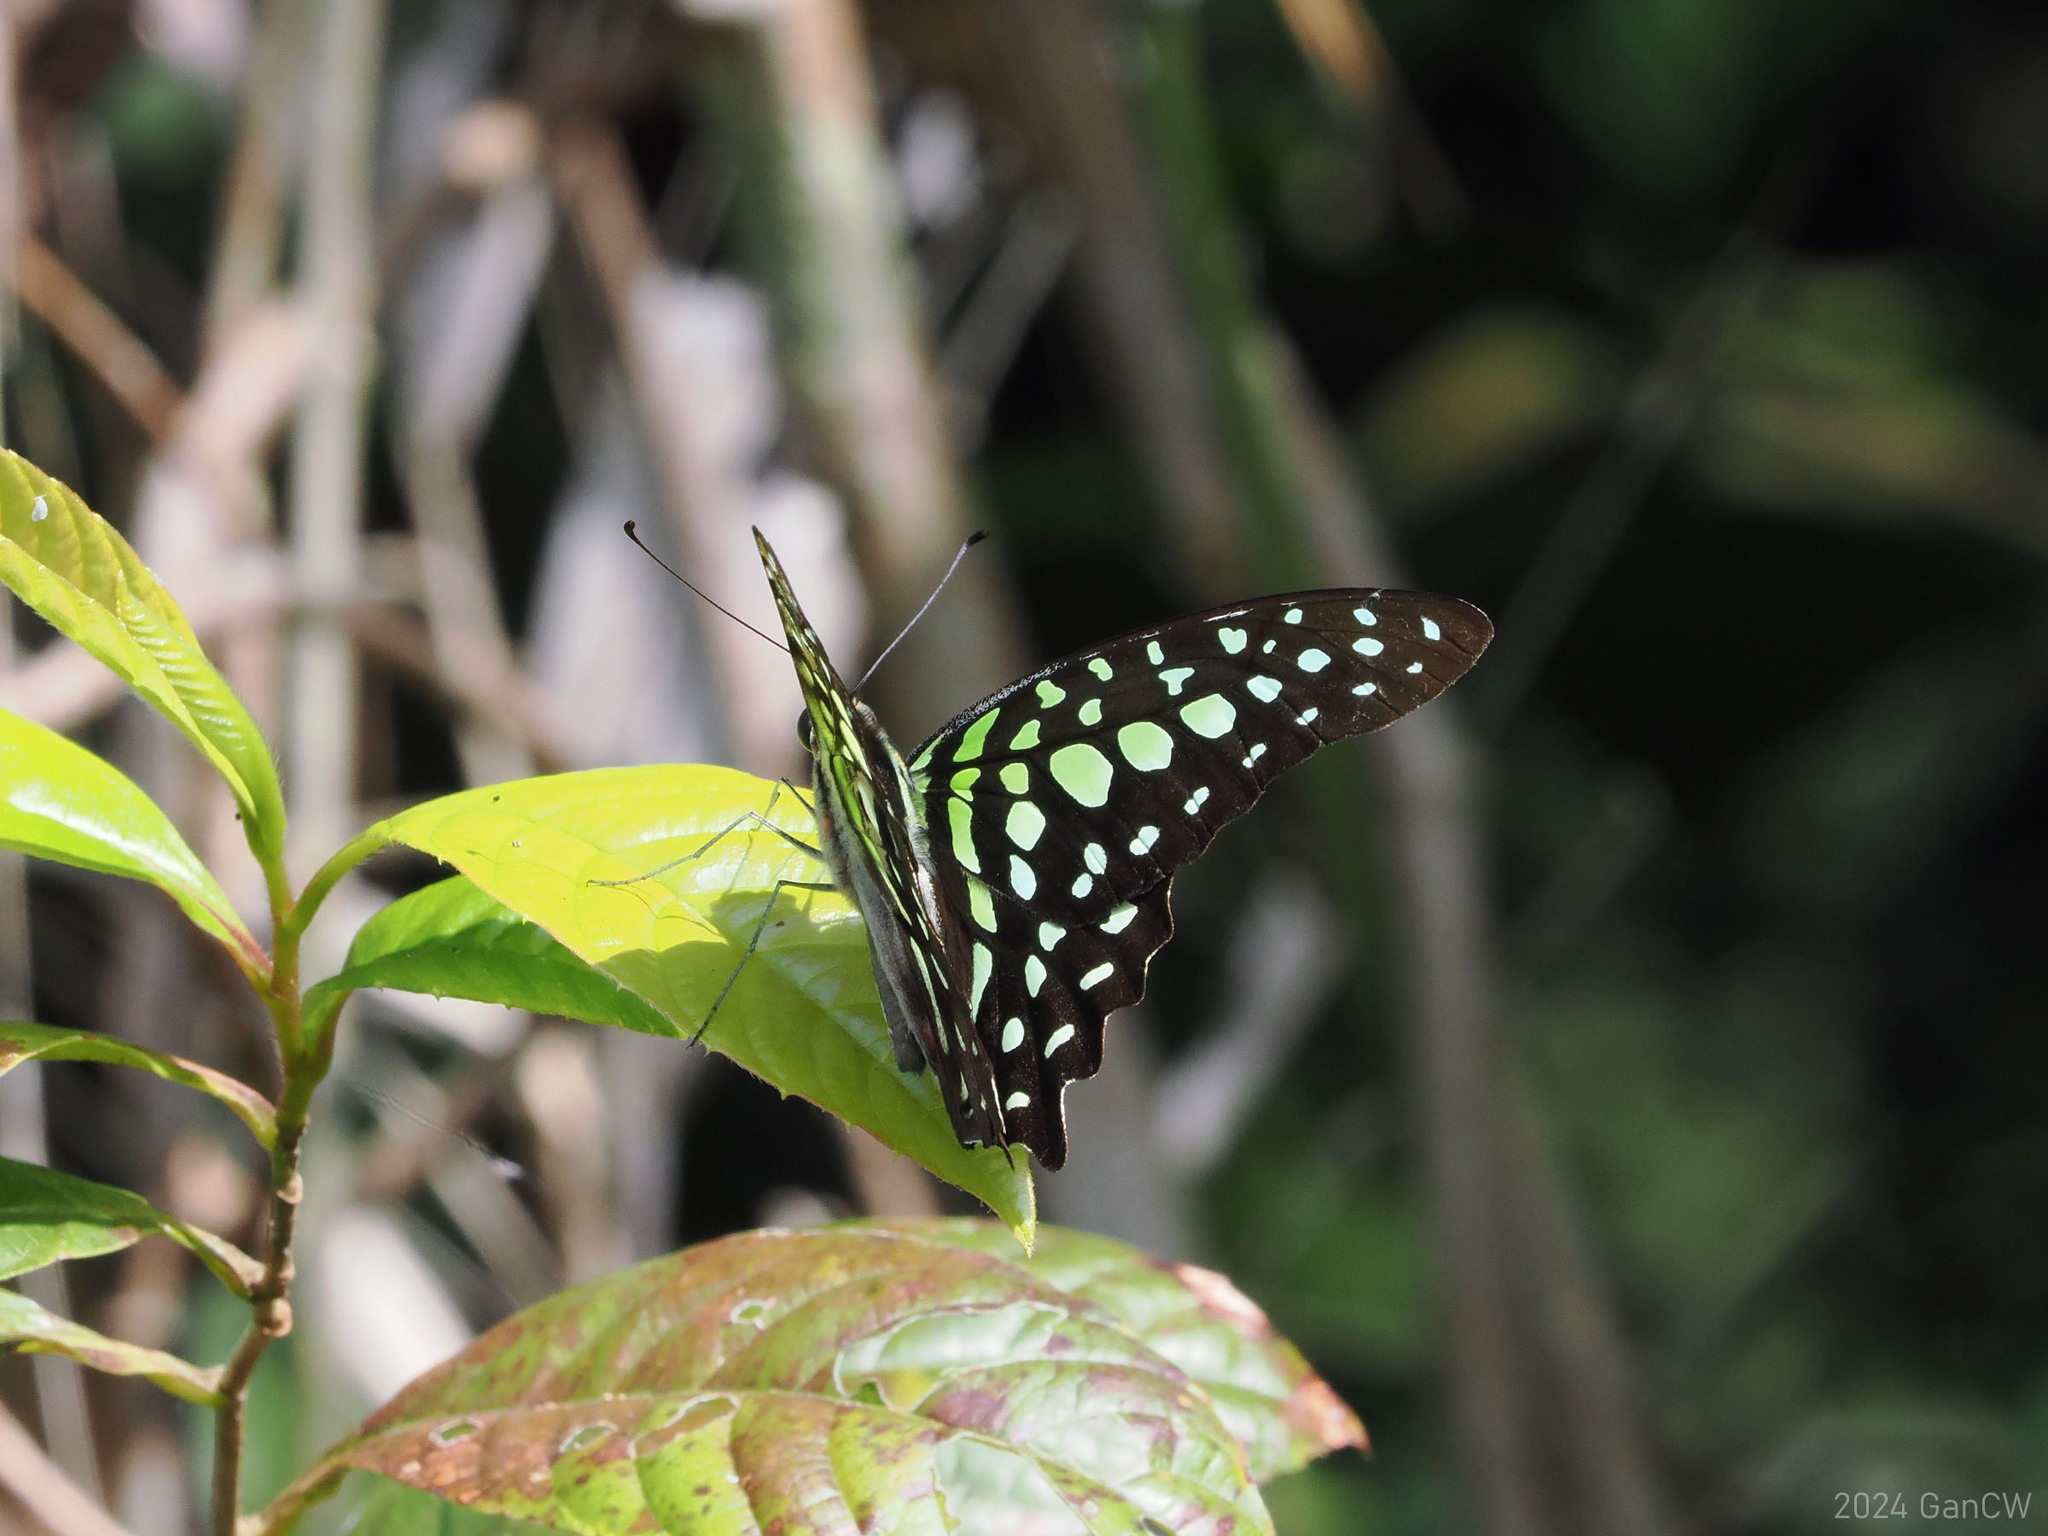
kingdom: Animalia
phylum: Arthropoda
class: Insecta
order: Lepidoptera
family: Papilionidae
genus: Graphium
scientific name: Graphium agamemnon
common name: Tailed jay
